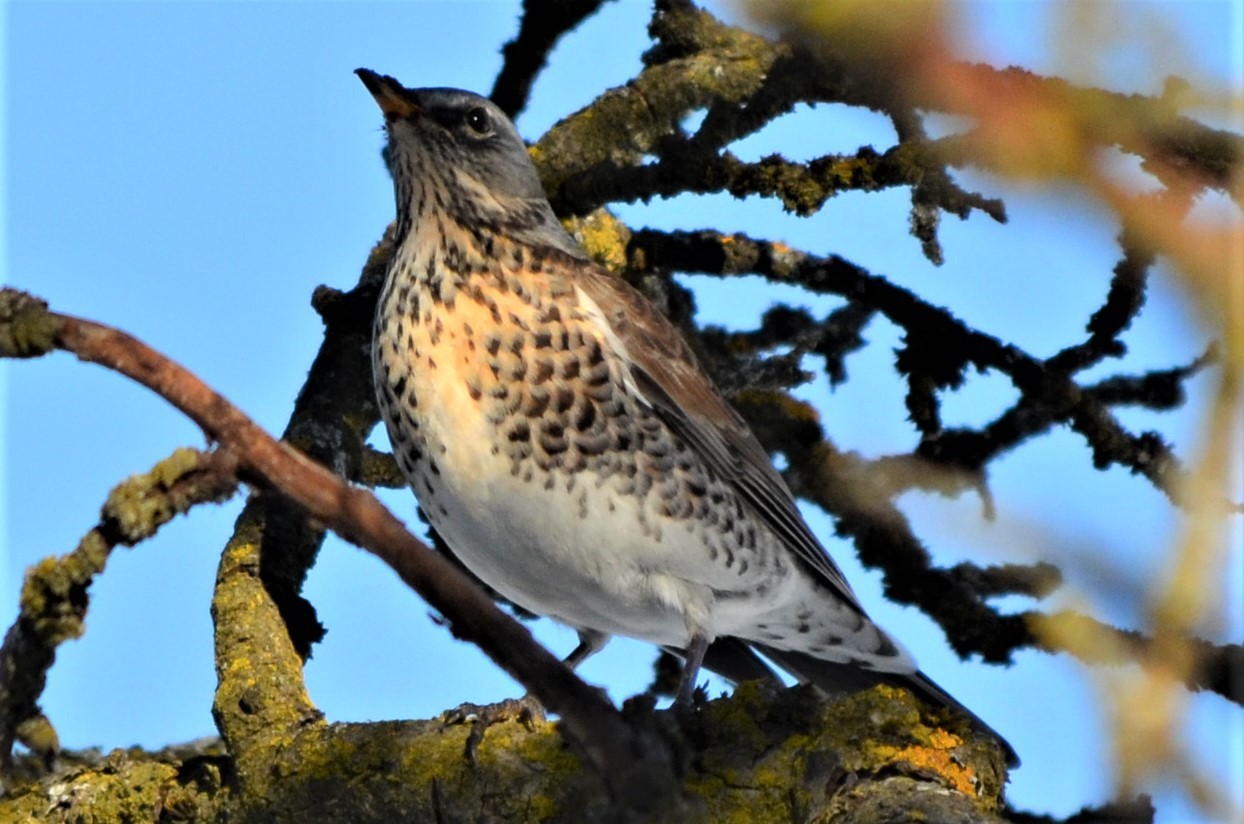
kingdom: Animalia
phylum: Chordata
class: Aves
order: Passeriformes
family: Turdidae
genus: Turdus
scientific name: Turdus pilaris
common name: Fieldfare
